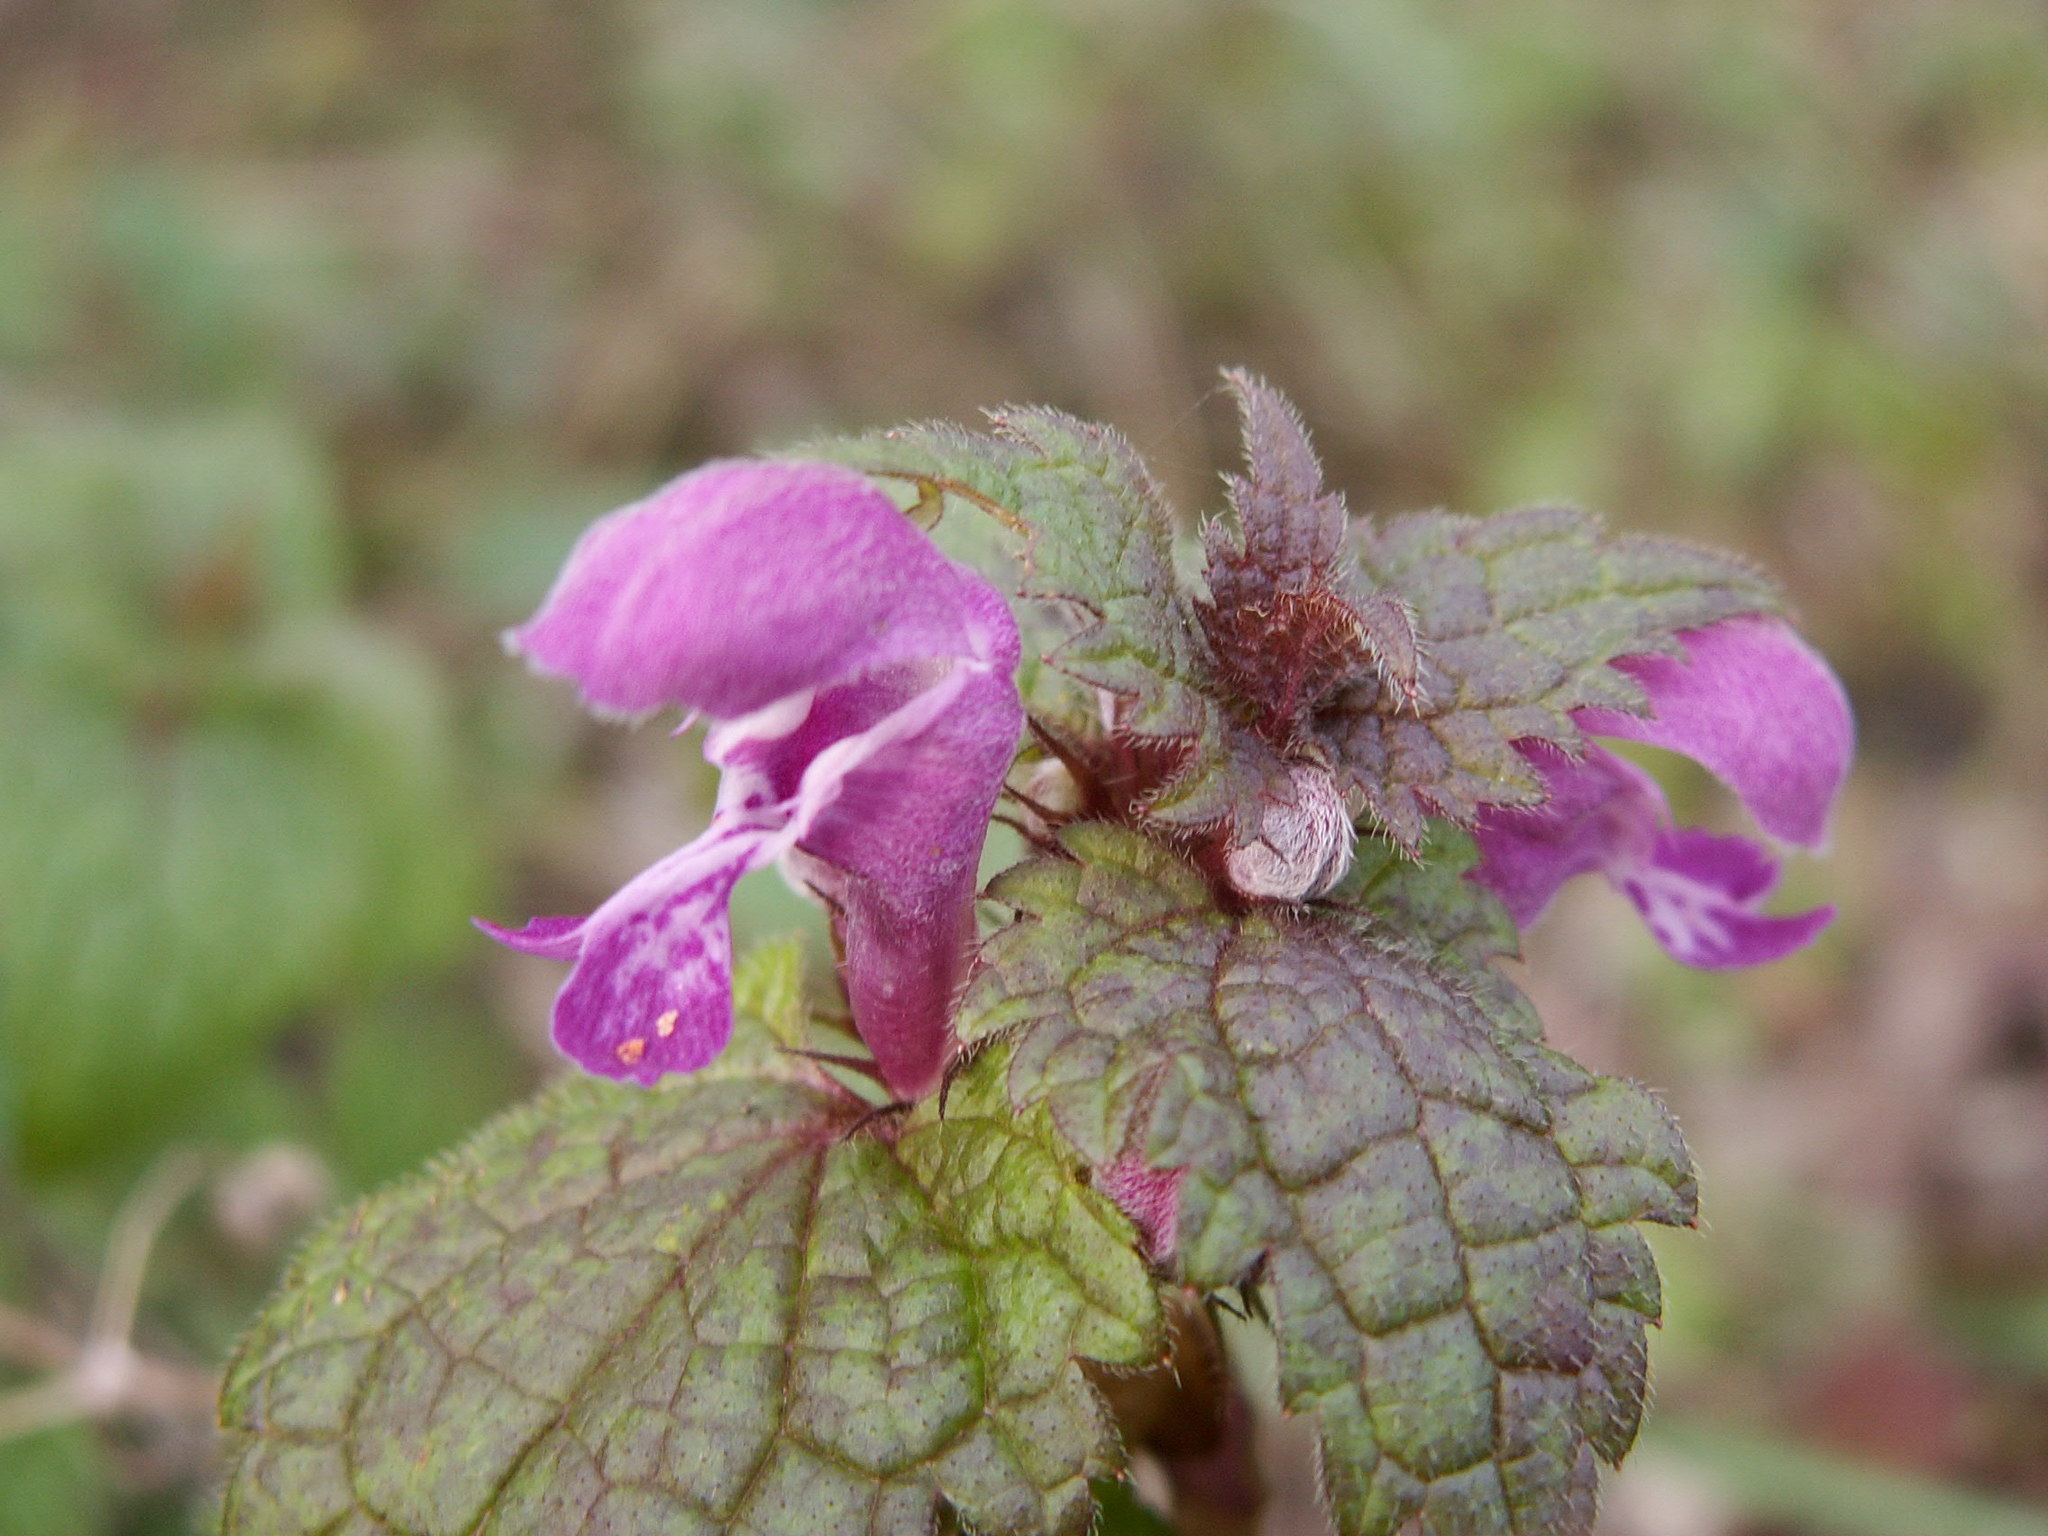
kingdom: Plantae
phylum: Tracheophyta
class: Magnoliopsida
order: Lamiales
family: Lamiaceae
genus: Lamium
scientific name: Lamium maculatum
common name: Spotted dead-nettle
